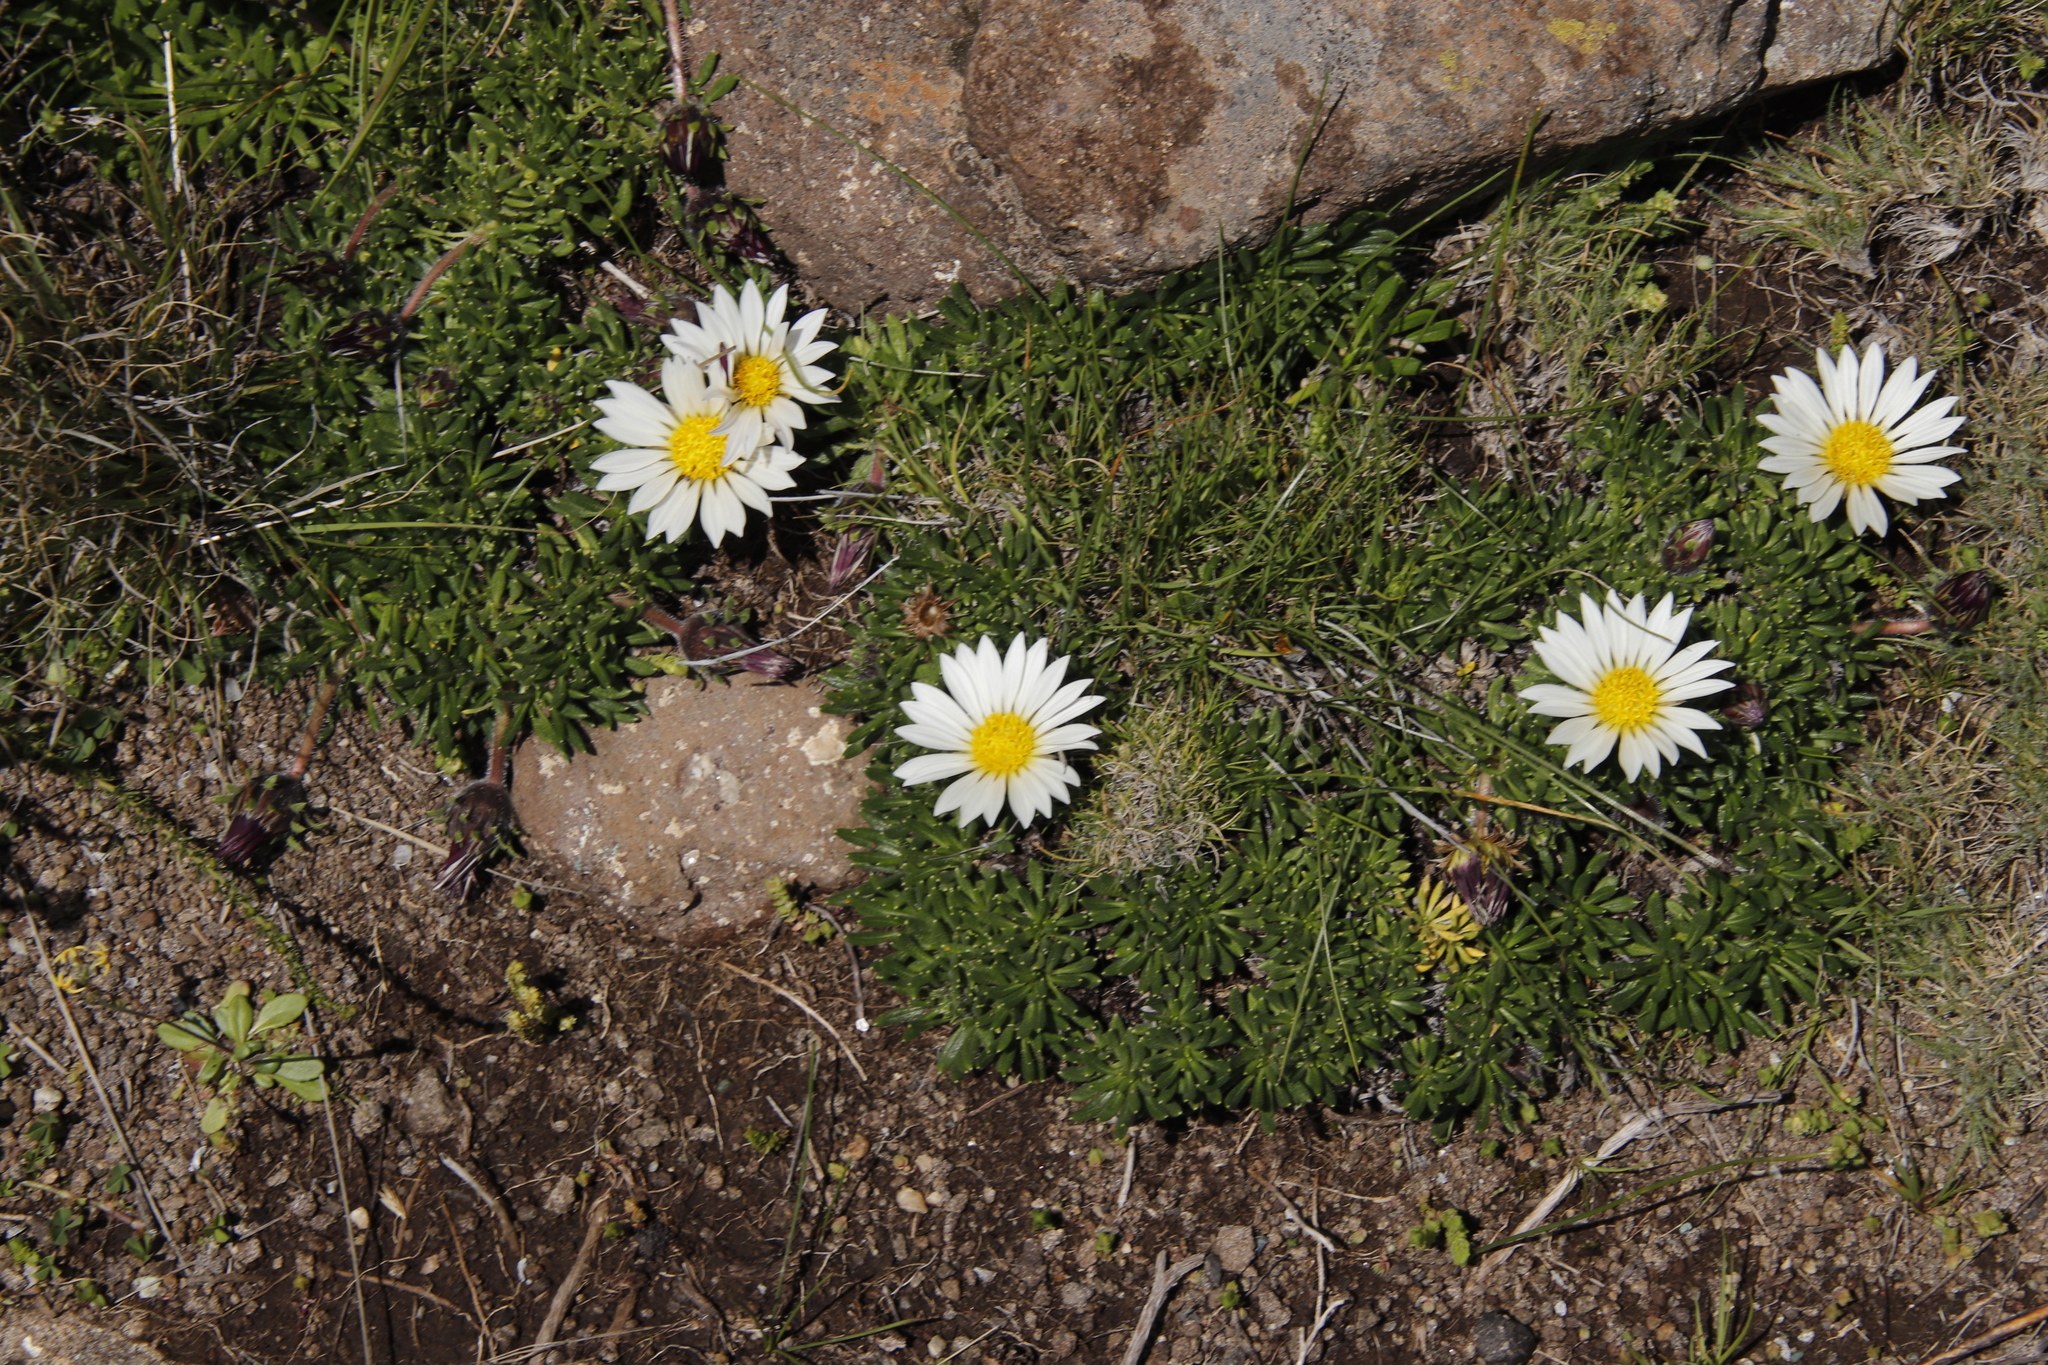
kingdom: Plantae
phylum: Tracheophyta
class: Magnoliopsida
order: Asterales
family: Asteraceae
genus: Roessleria
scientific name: Roessleria armerioides
